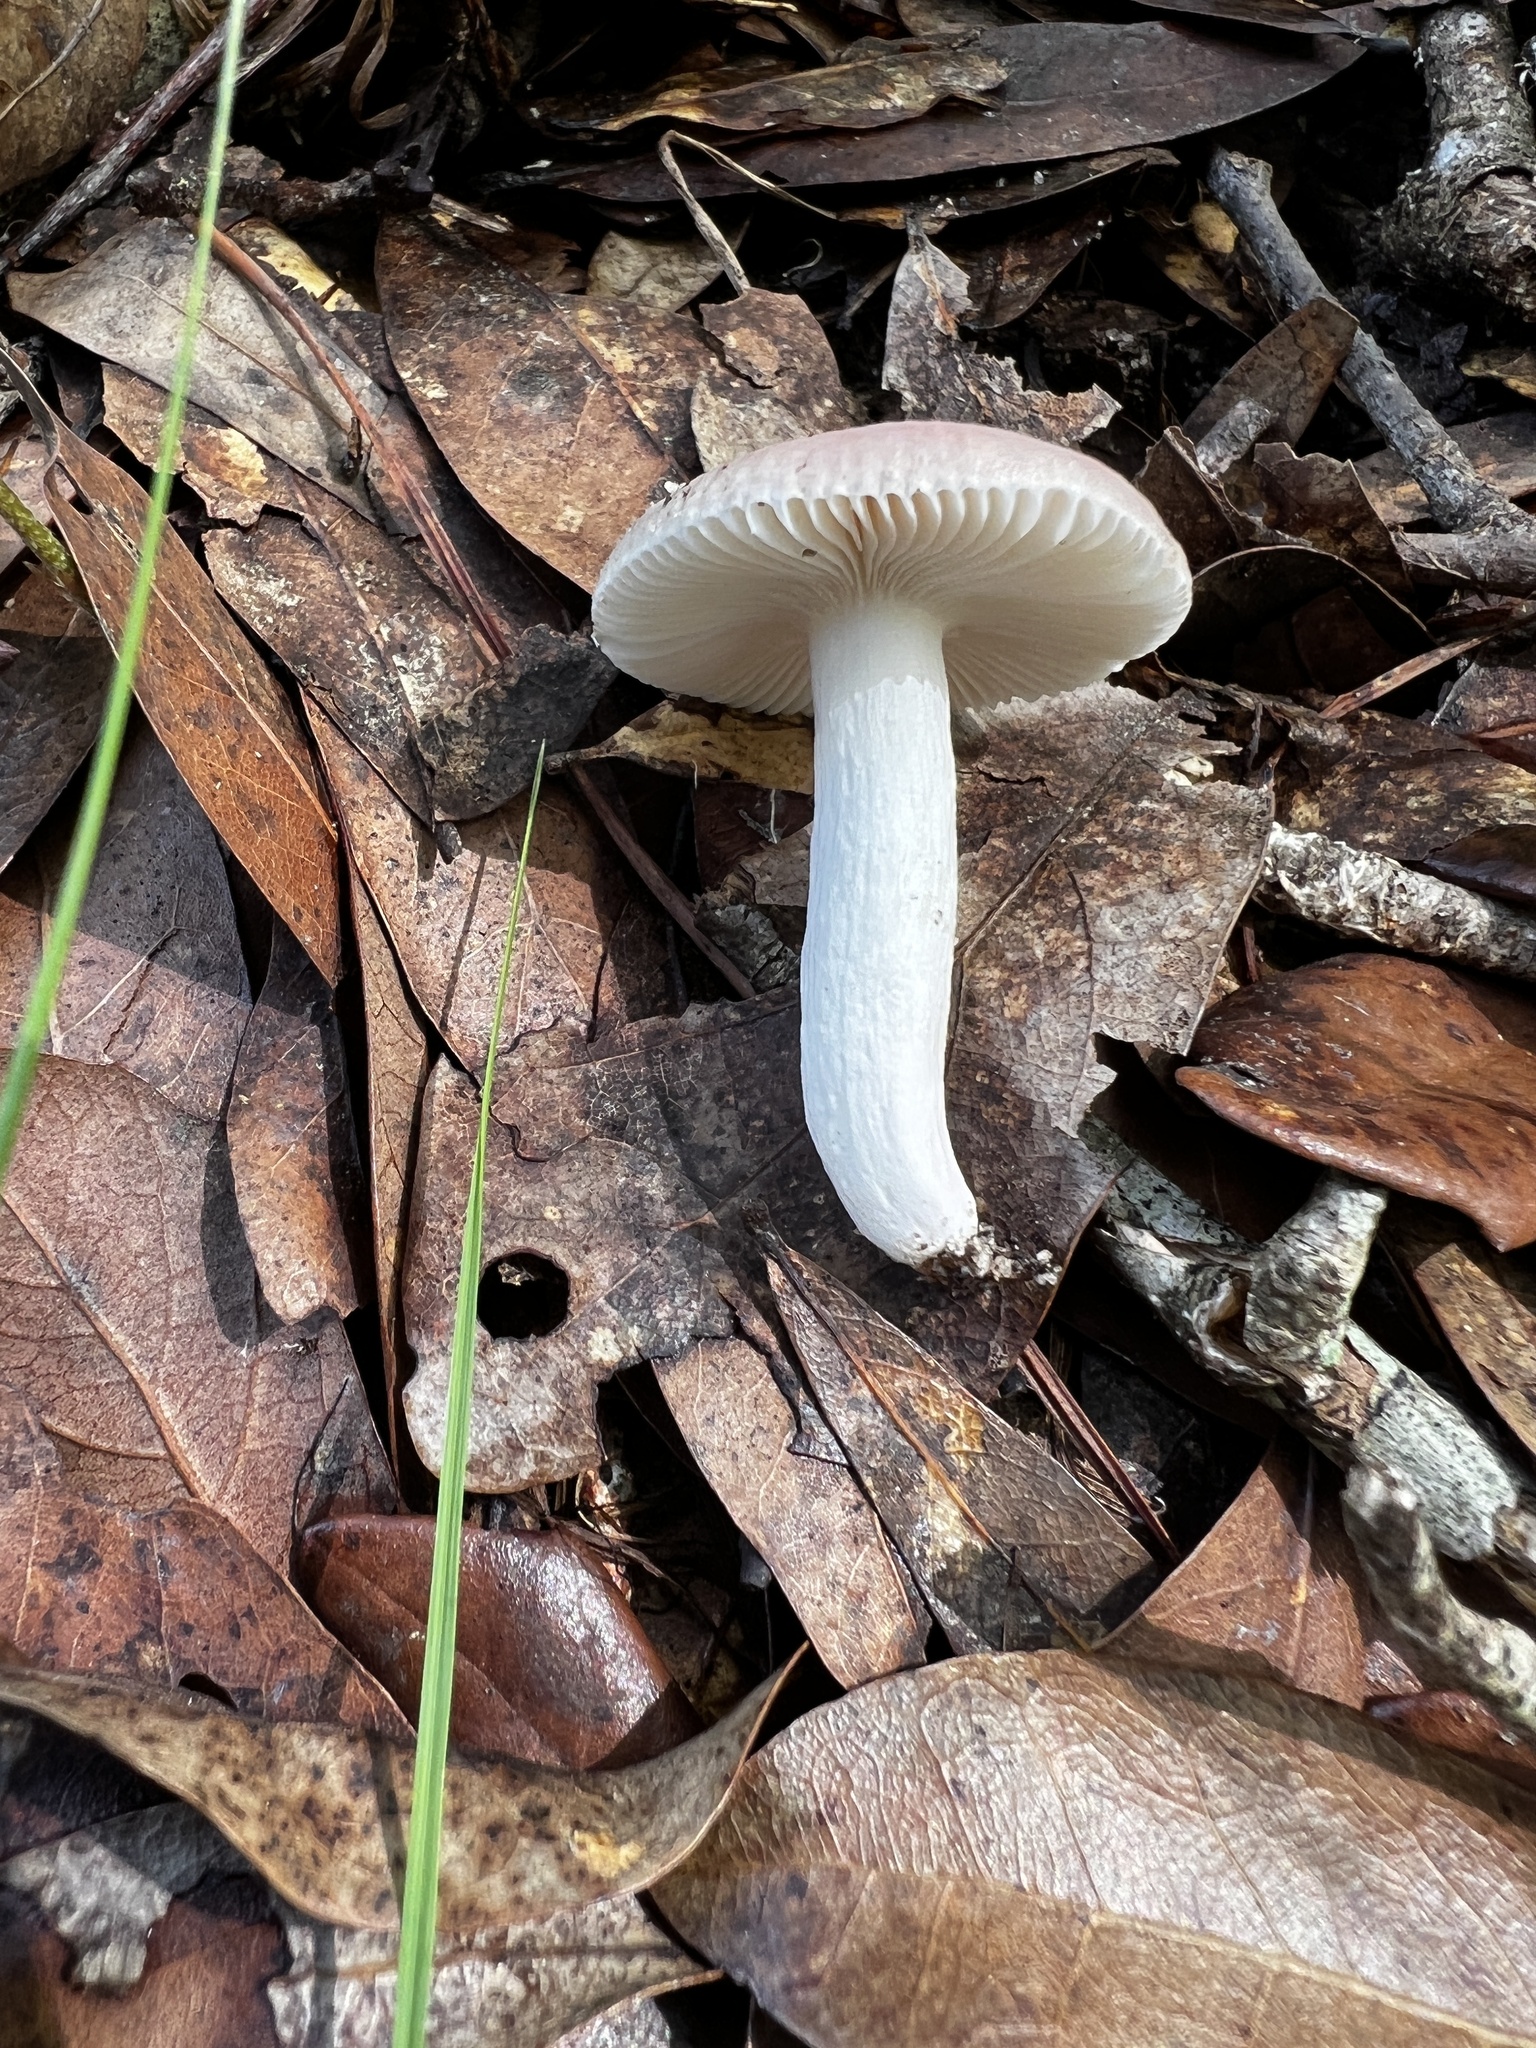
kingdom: Fungi
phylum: Basidiomycota
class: Agaricomycetes
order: Russulales
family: Russulaceae
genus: Russula
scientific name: Russula subtilis
